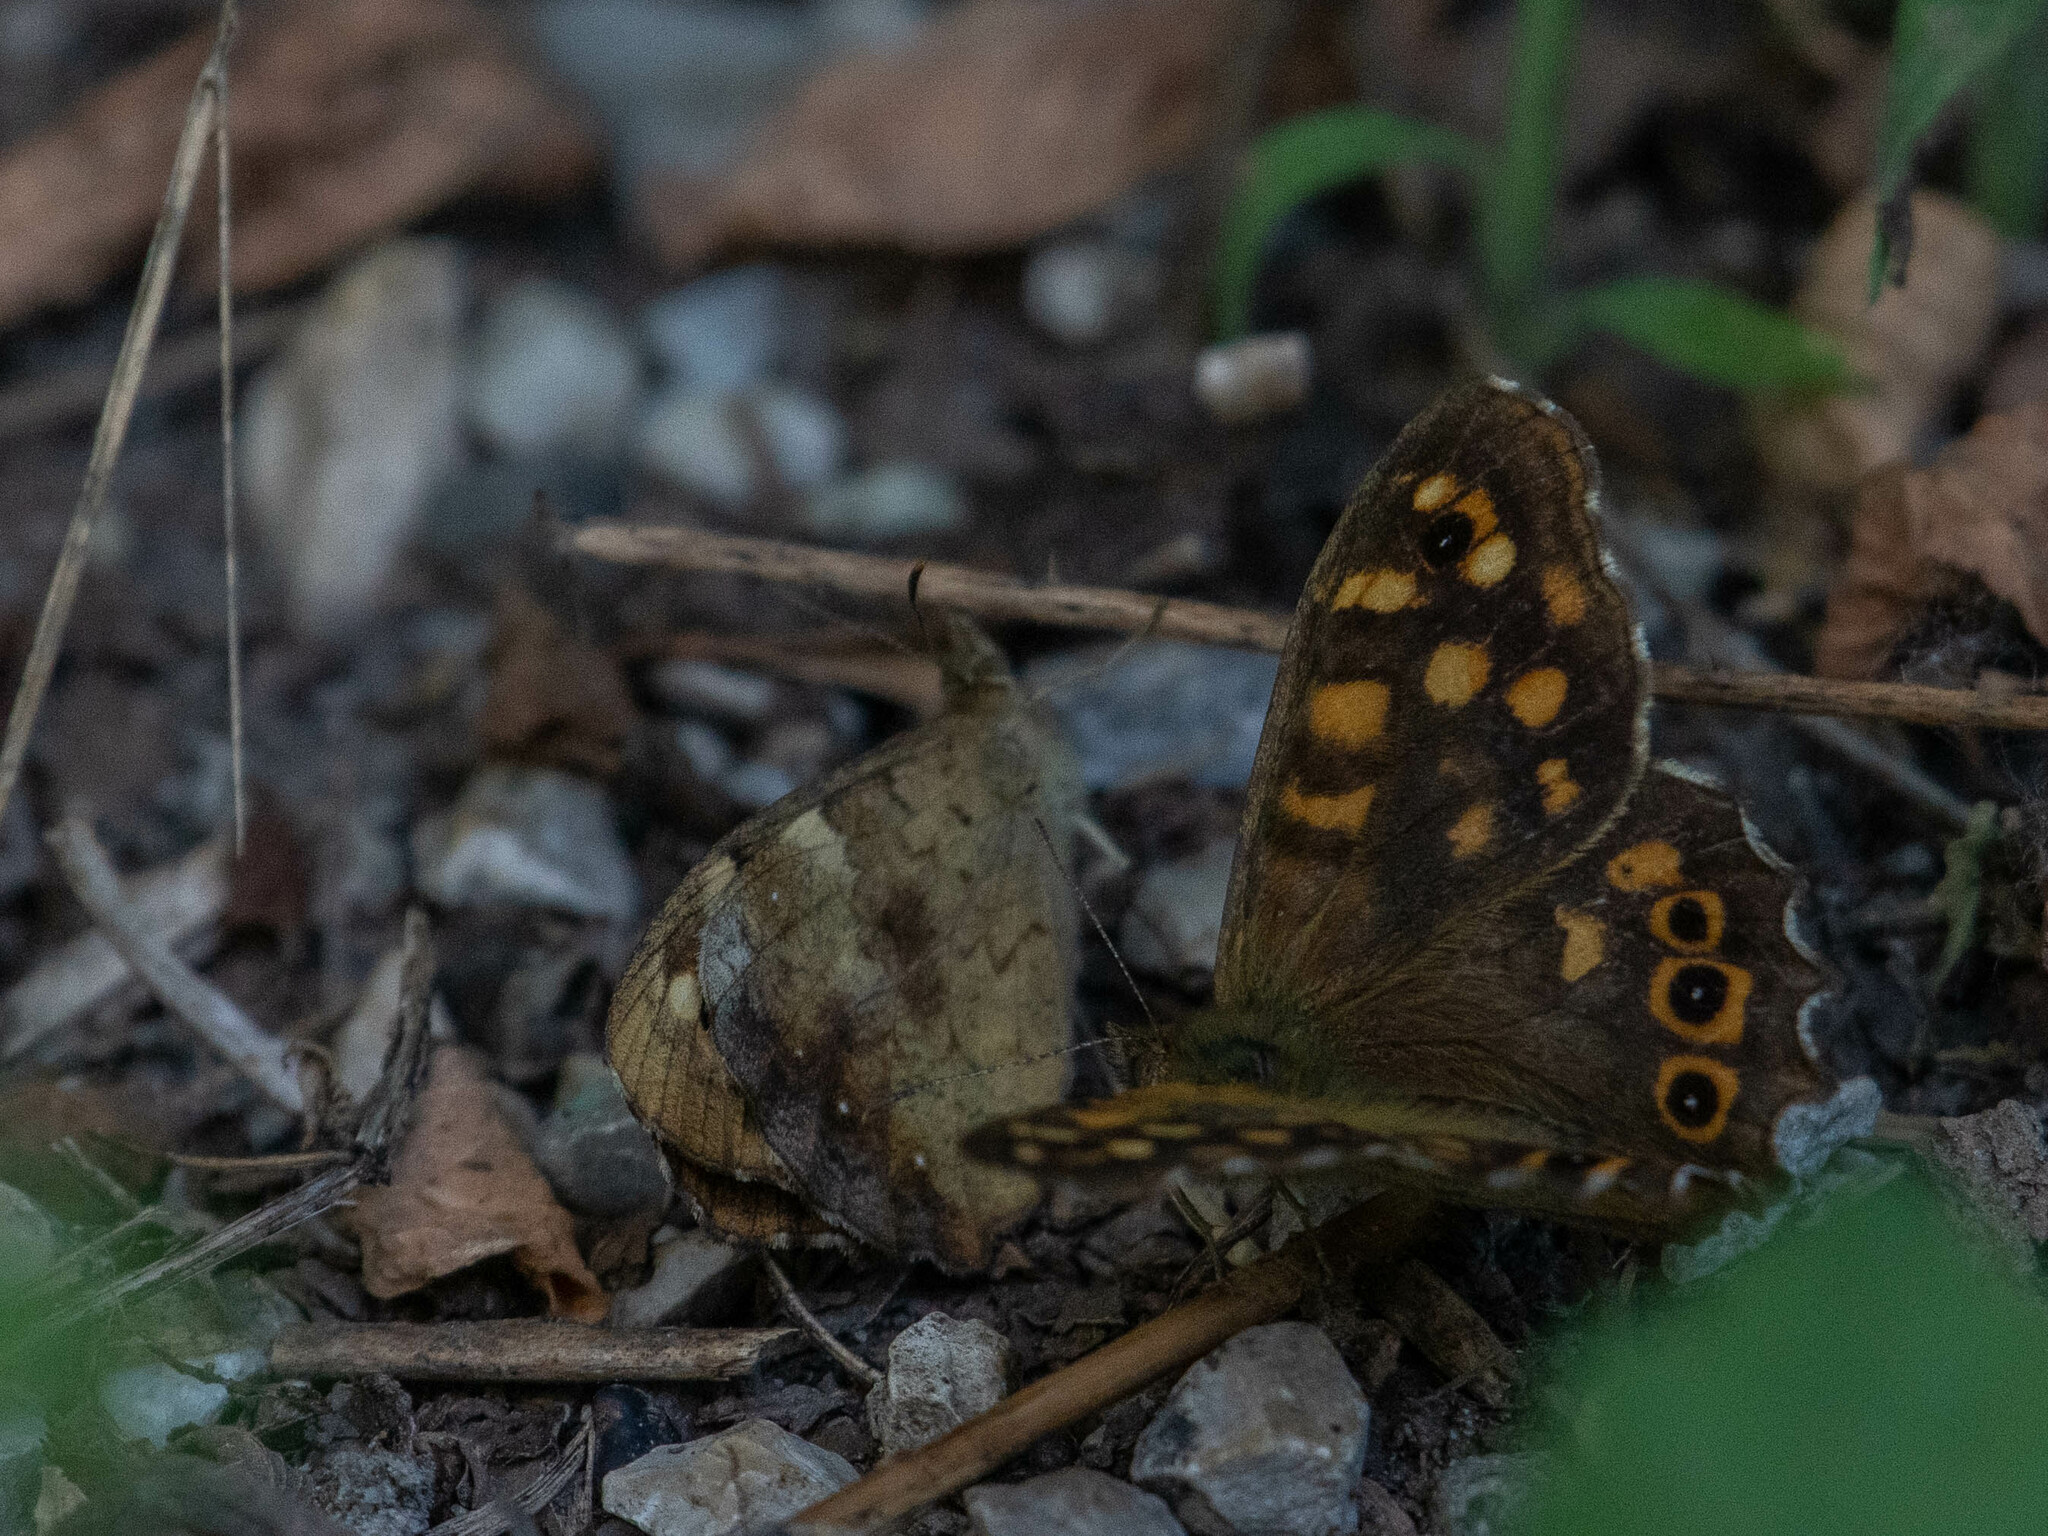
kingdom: Animalia
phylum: Arthropoda
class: Insecta
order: Lepidoptera
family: Nymphalidae
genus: Pararge
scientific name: Pararge aegeria
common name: Speckled wood
